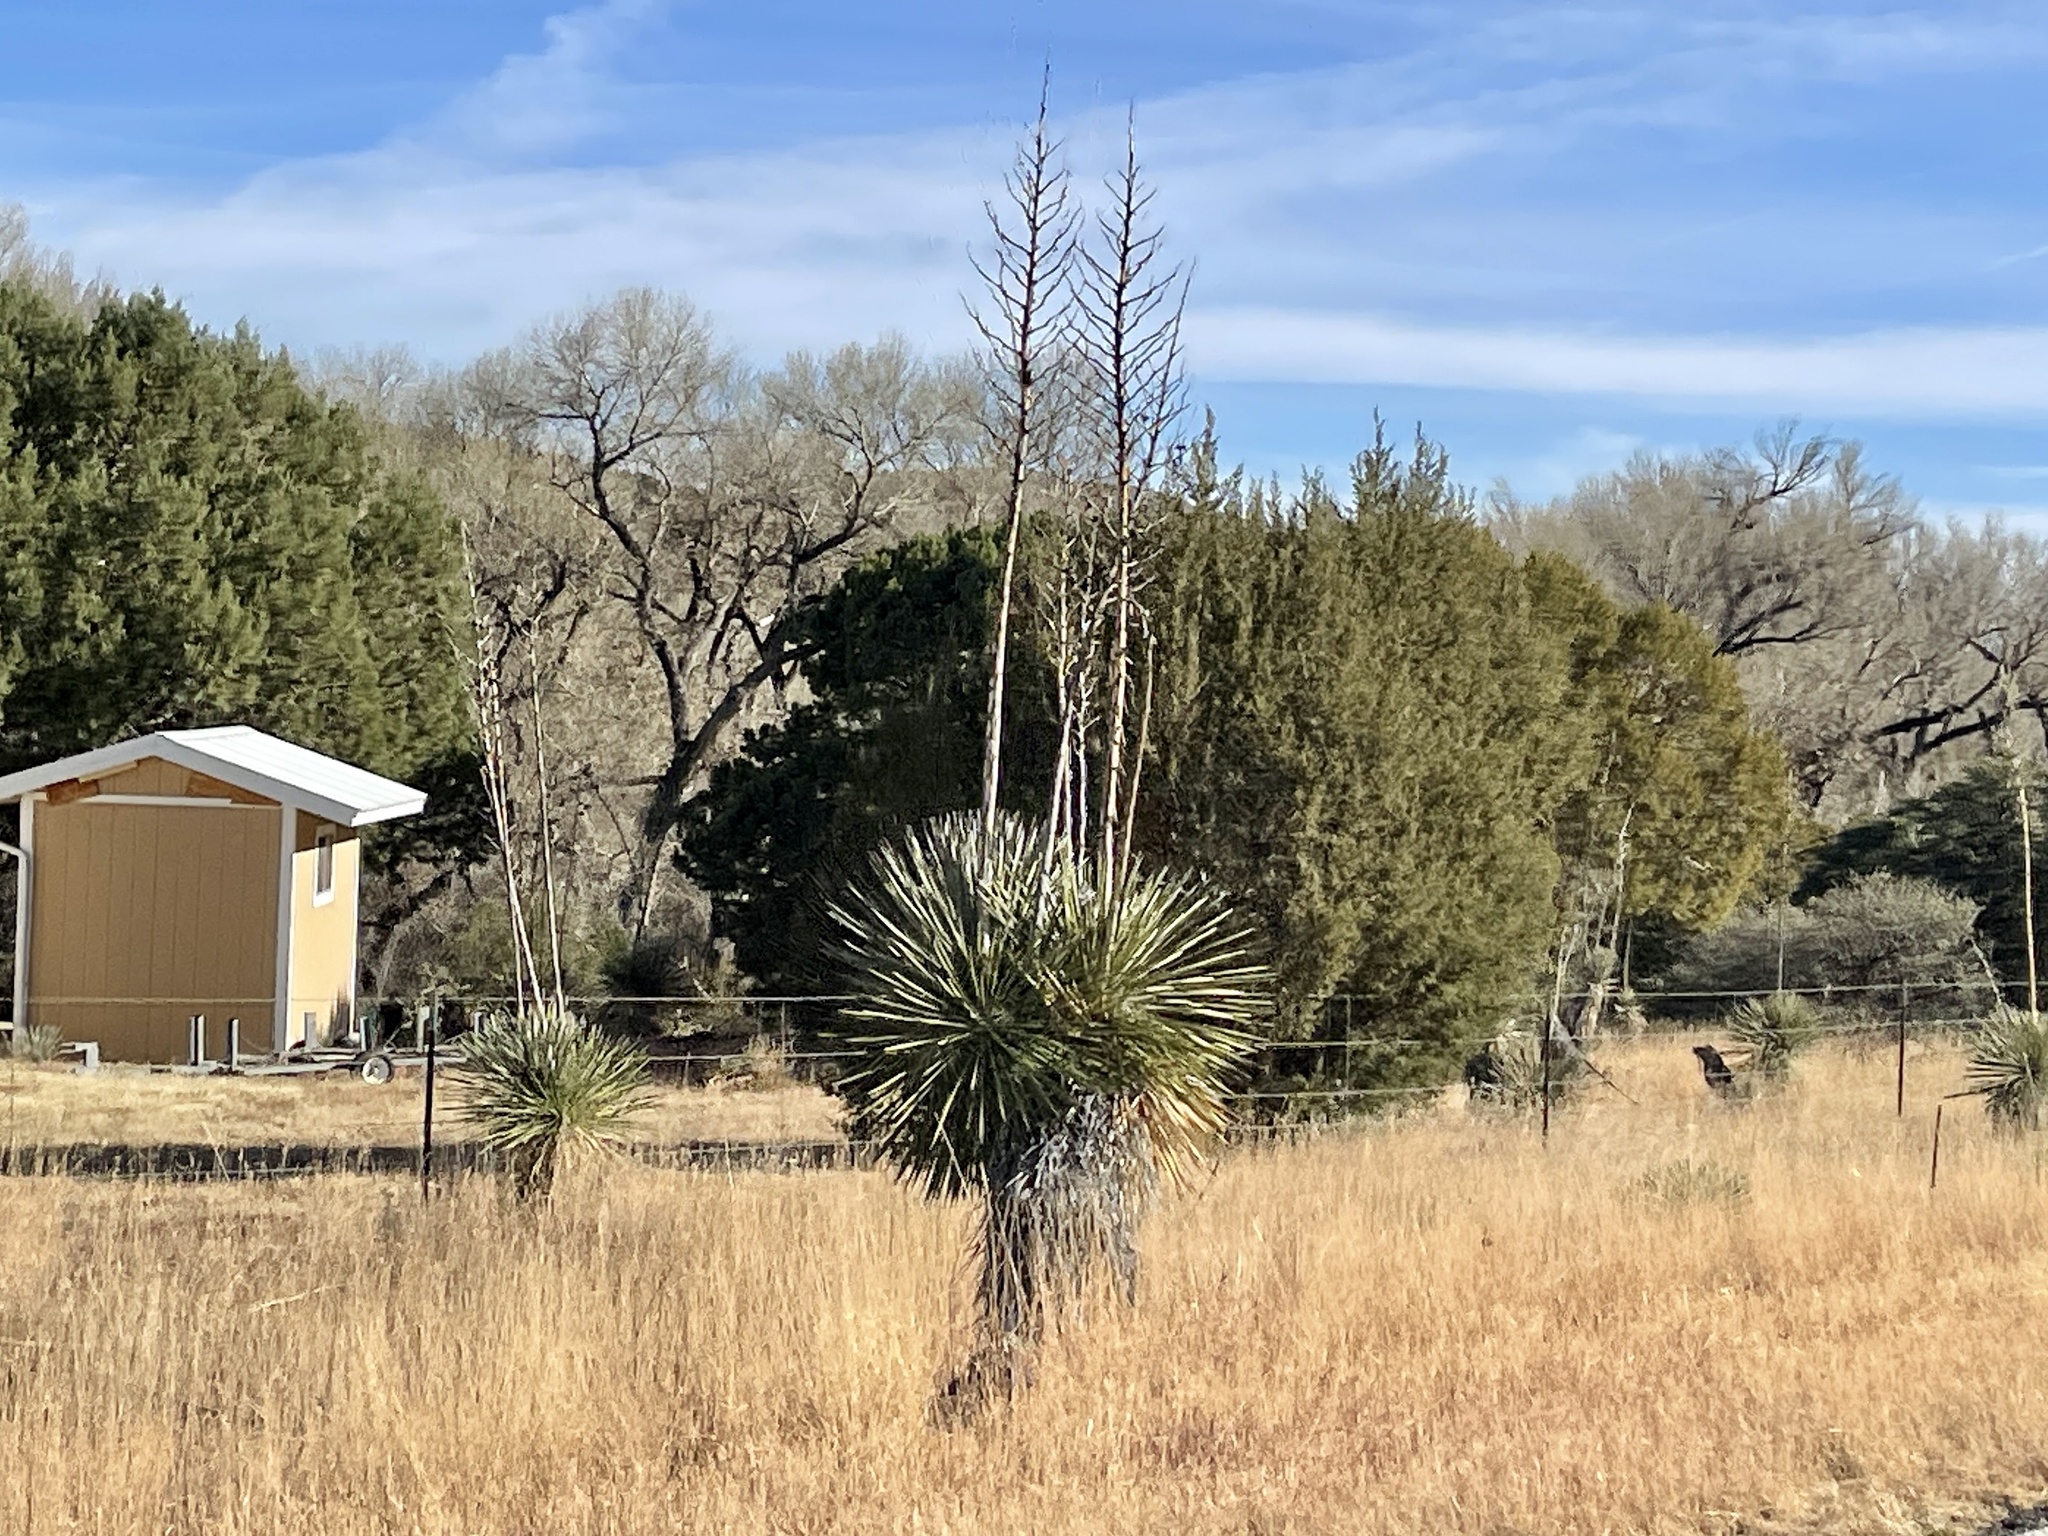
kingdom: Plantae
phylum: Tracheophyta
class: Liliopsida
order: Asparagales
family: Asparagaceae
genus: Yucca
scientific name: Yucca elata
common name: Palmella
